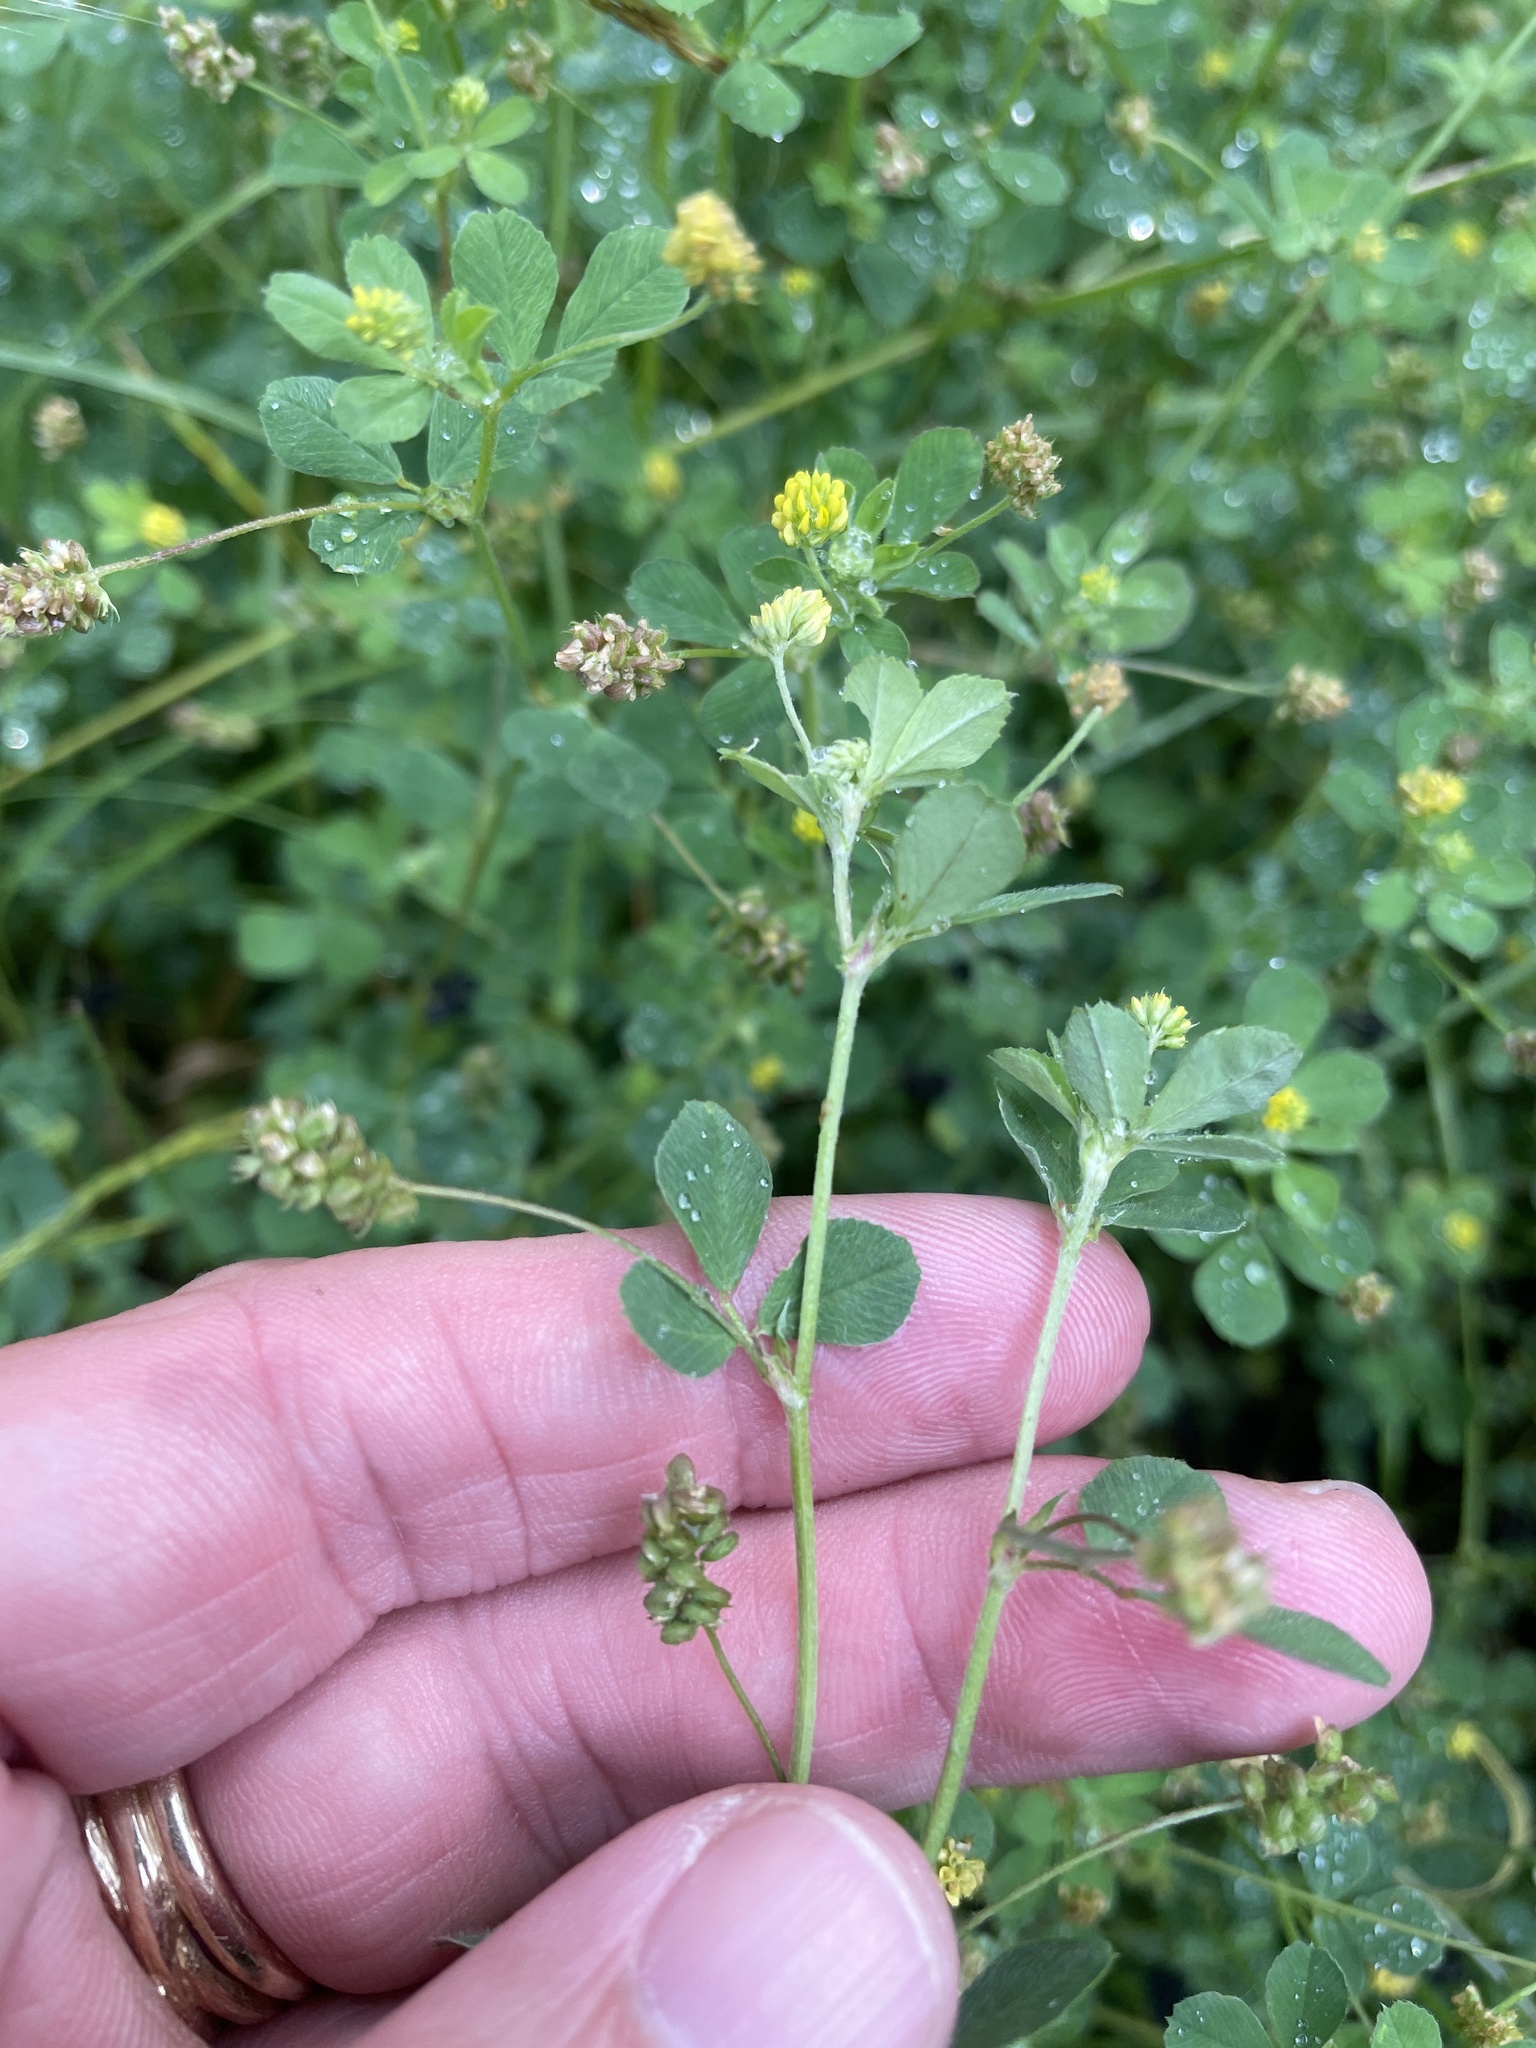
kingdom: Plantae
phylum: Tracheophyta
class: Magnoliopsida
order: Fabales
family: Fabaceae
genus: Medicago
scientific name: Medicago lupulina
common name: Black medick
